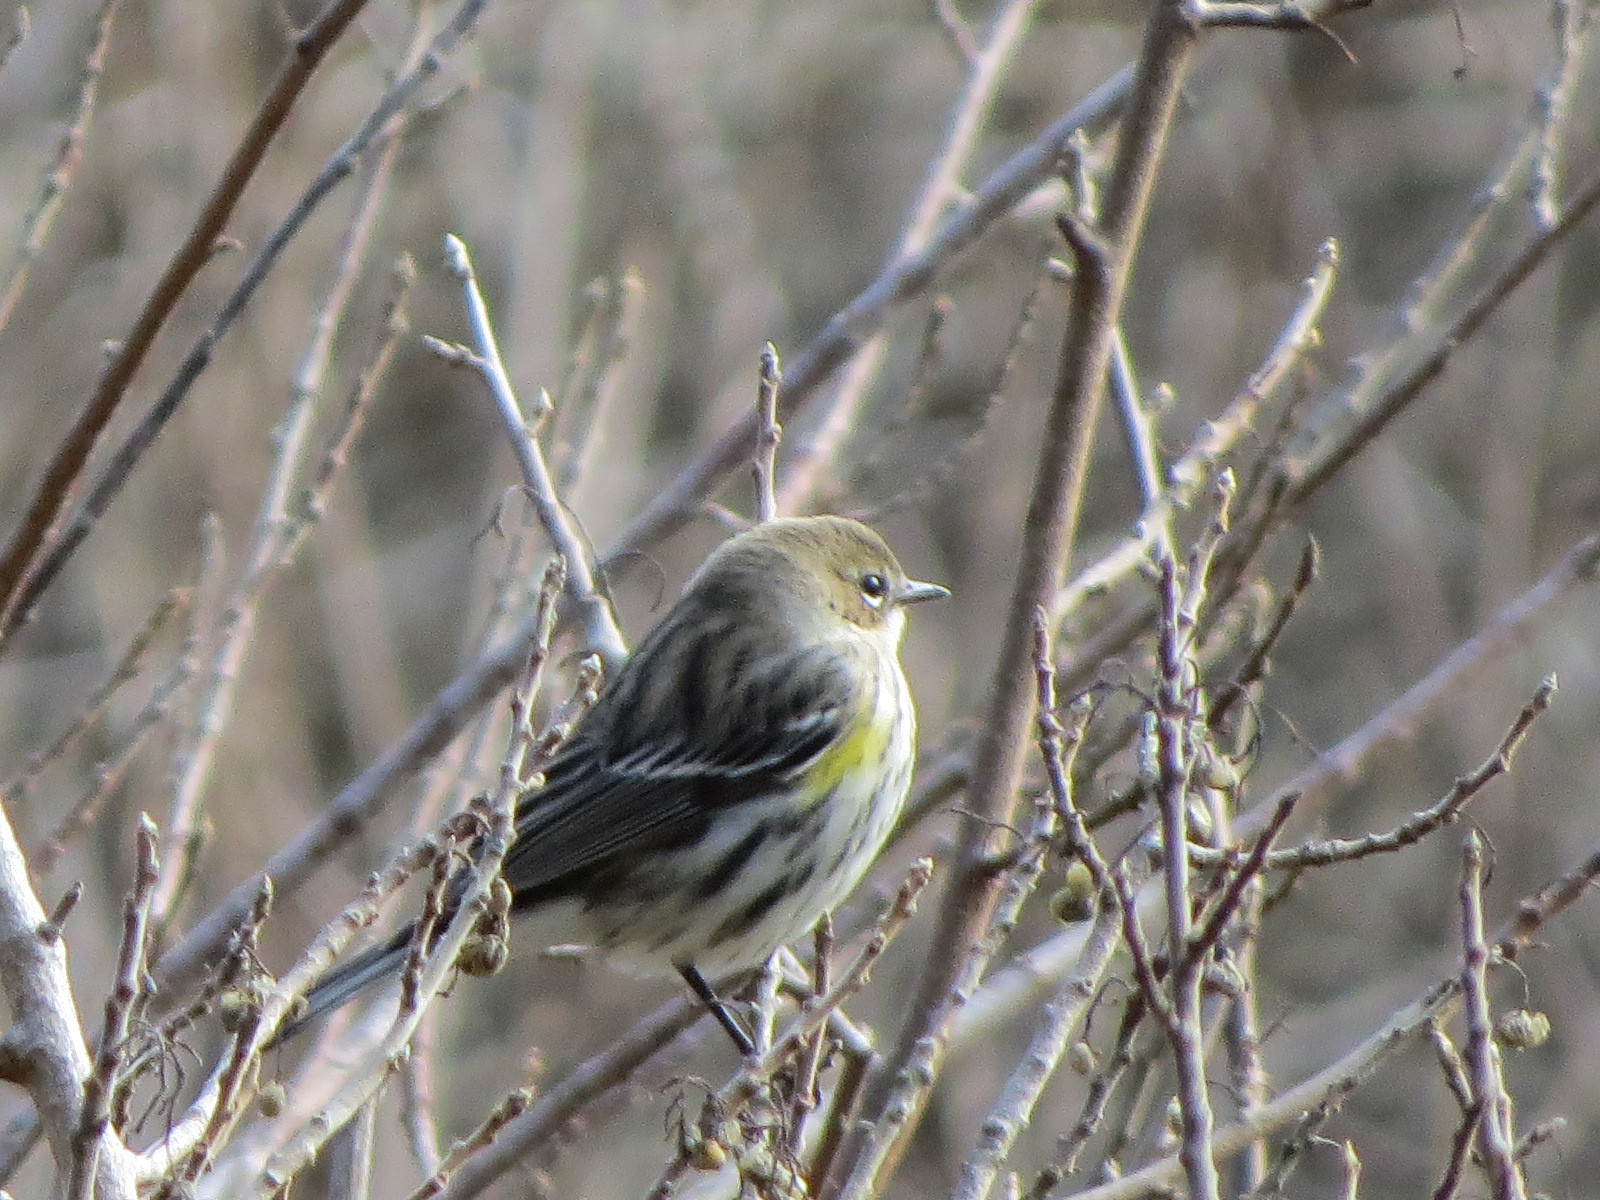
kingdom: Animalia
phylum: Chordata
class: Aves
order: Passeriformes
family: Parulidae
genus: Setophaga
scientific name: Setophaga coronata
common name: Myrtle warbler
